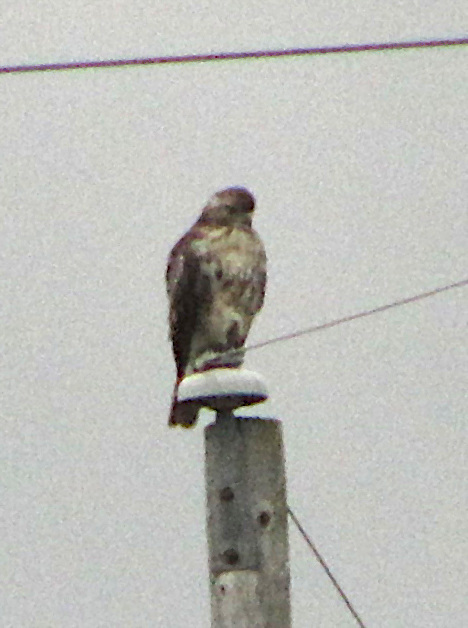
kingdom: Animalia
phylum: Chordata
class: Aves
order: Accipitriformes
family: Accipitridae
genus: Buteo
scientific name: Buteo jamaicensis
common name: Red-tailed hawk
